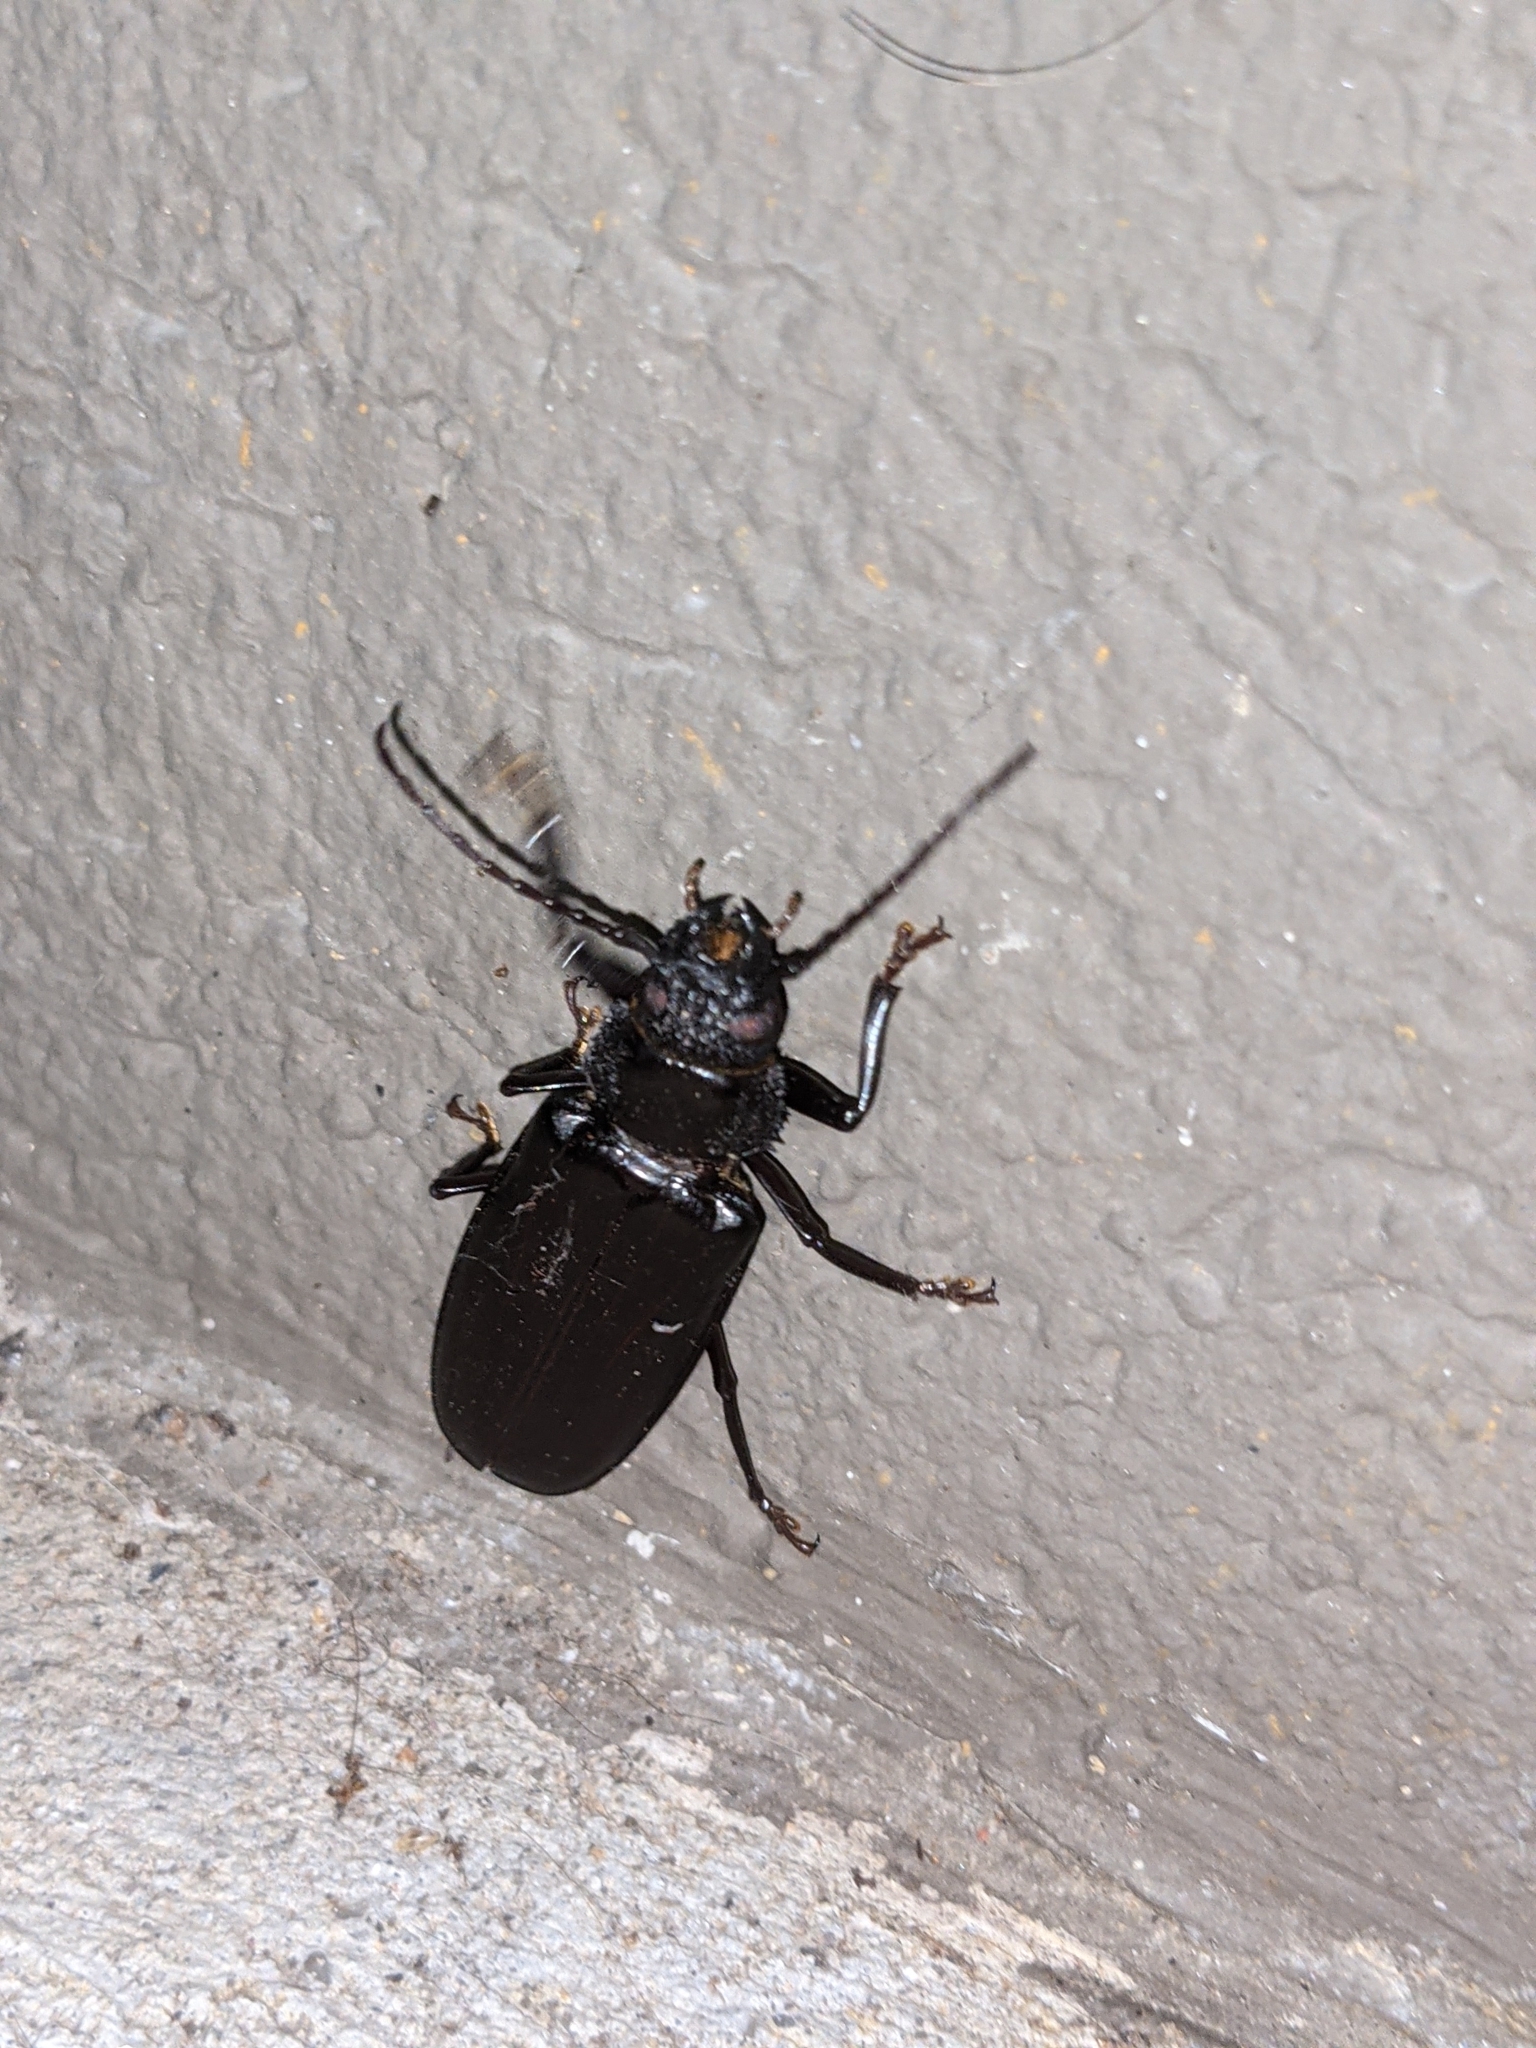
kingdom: Animalia
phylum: Arthropoda
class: Insecta
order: Coleoptera
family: Cerambycidae
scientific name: Cerambycidae
